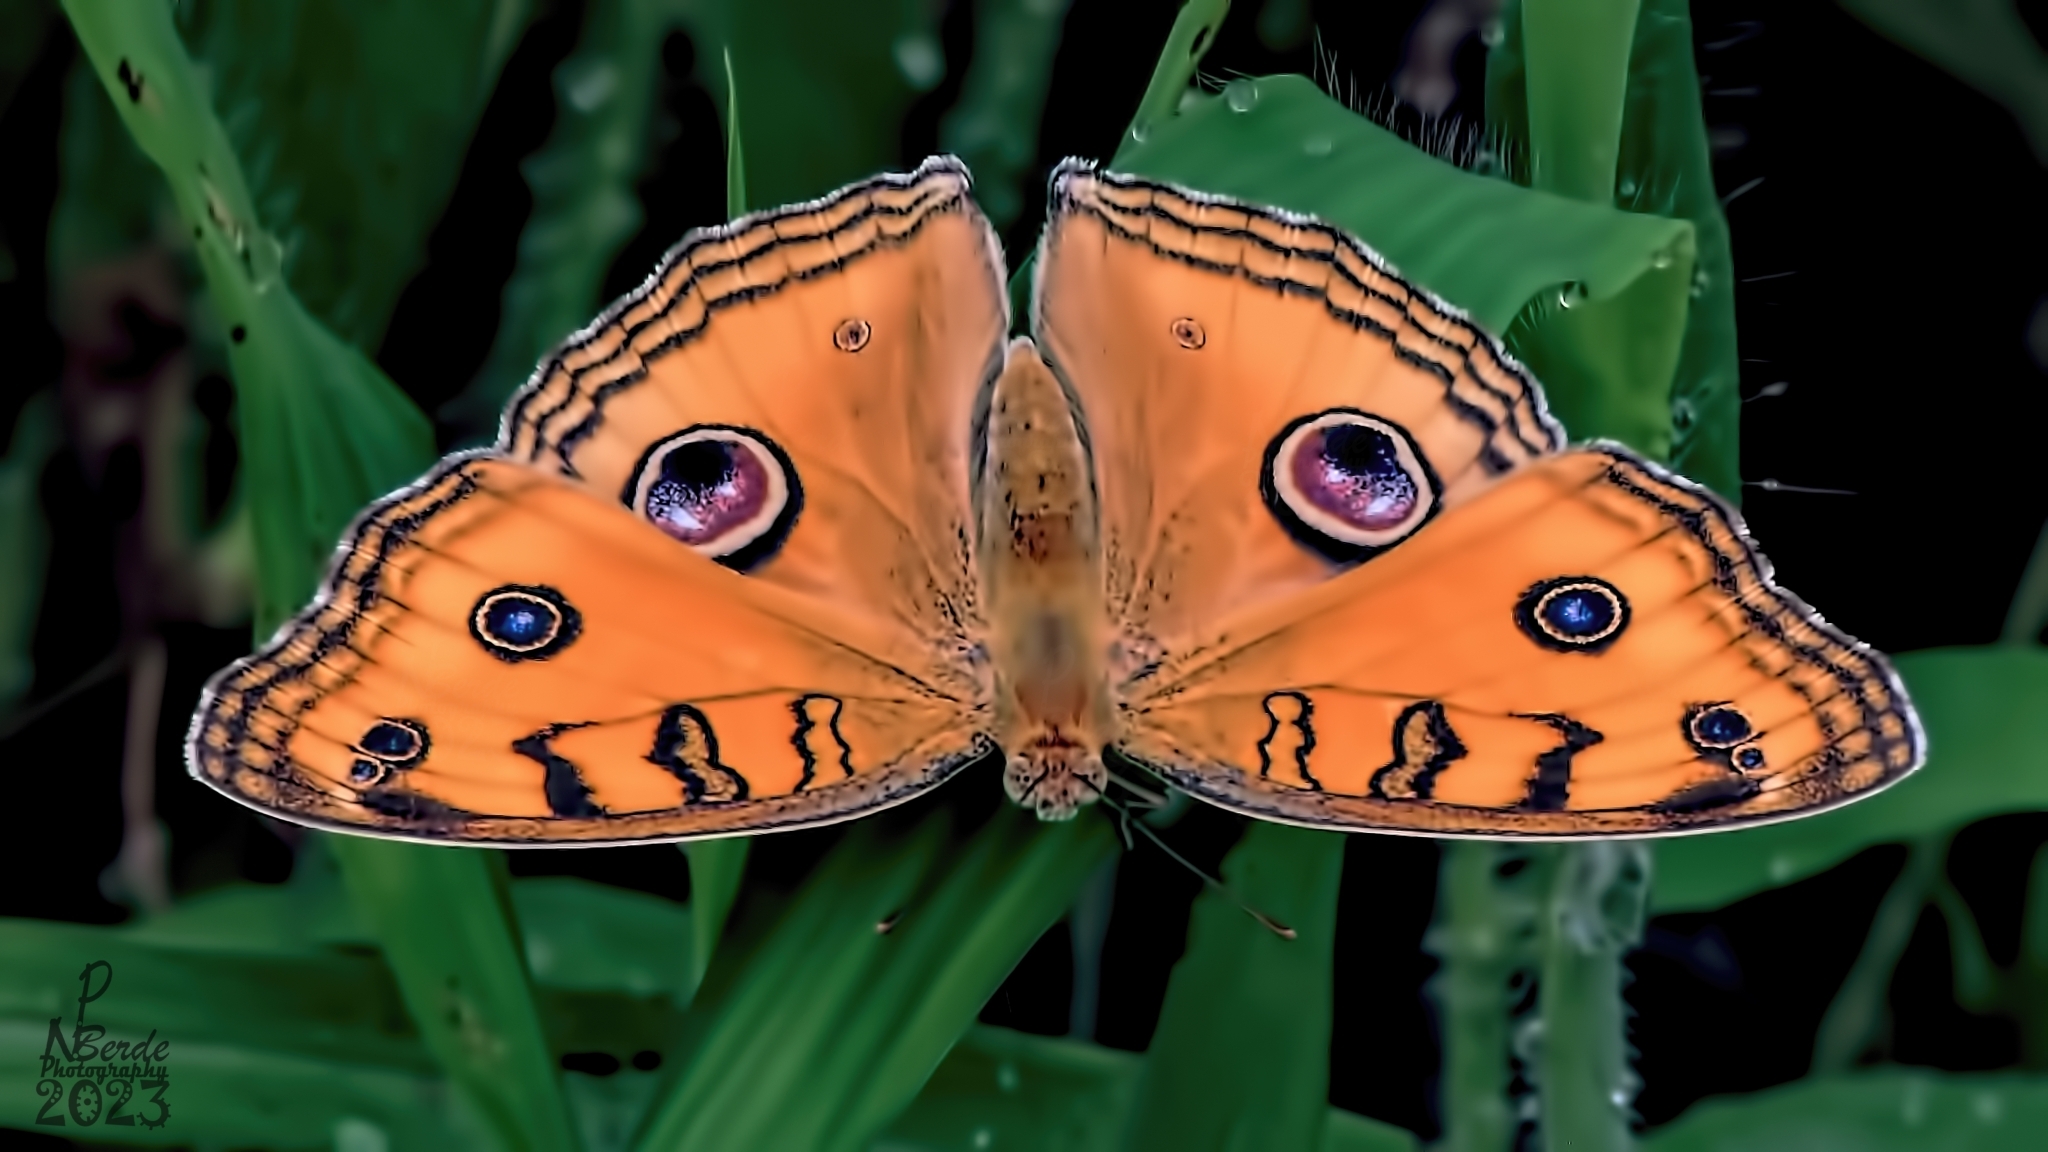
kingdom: Animalia
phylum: Arthropoda
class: Insecta
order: Lepidoptera
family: Nymphalidae
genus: Junonia
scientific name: Junonia almana
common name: Peacock pansy
